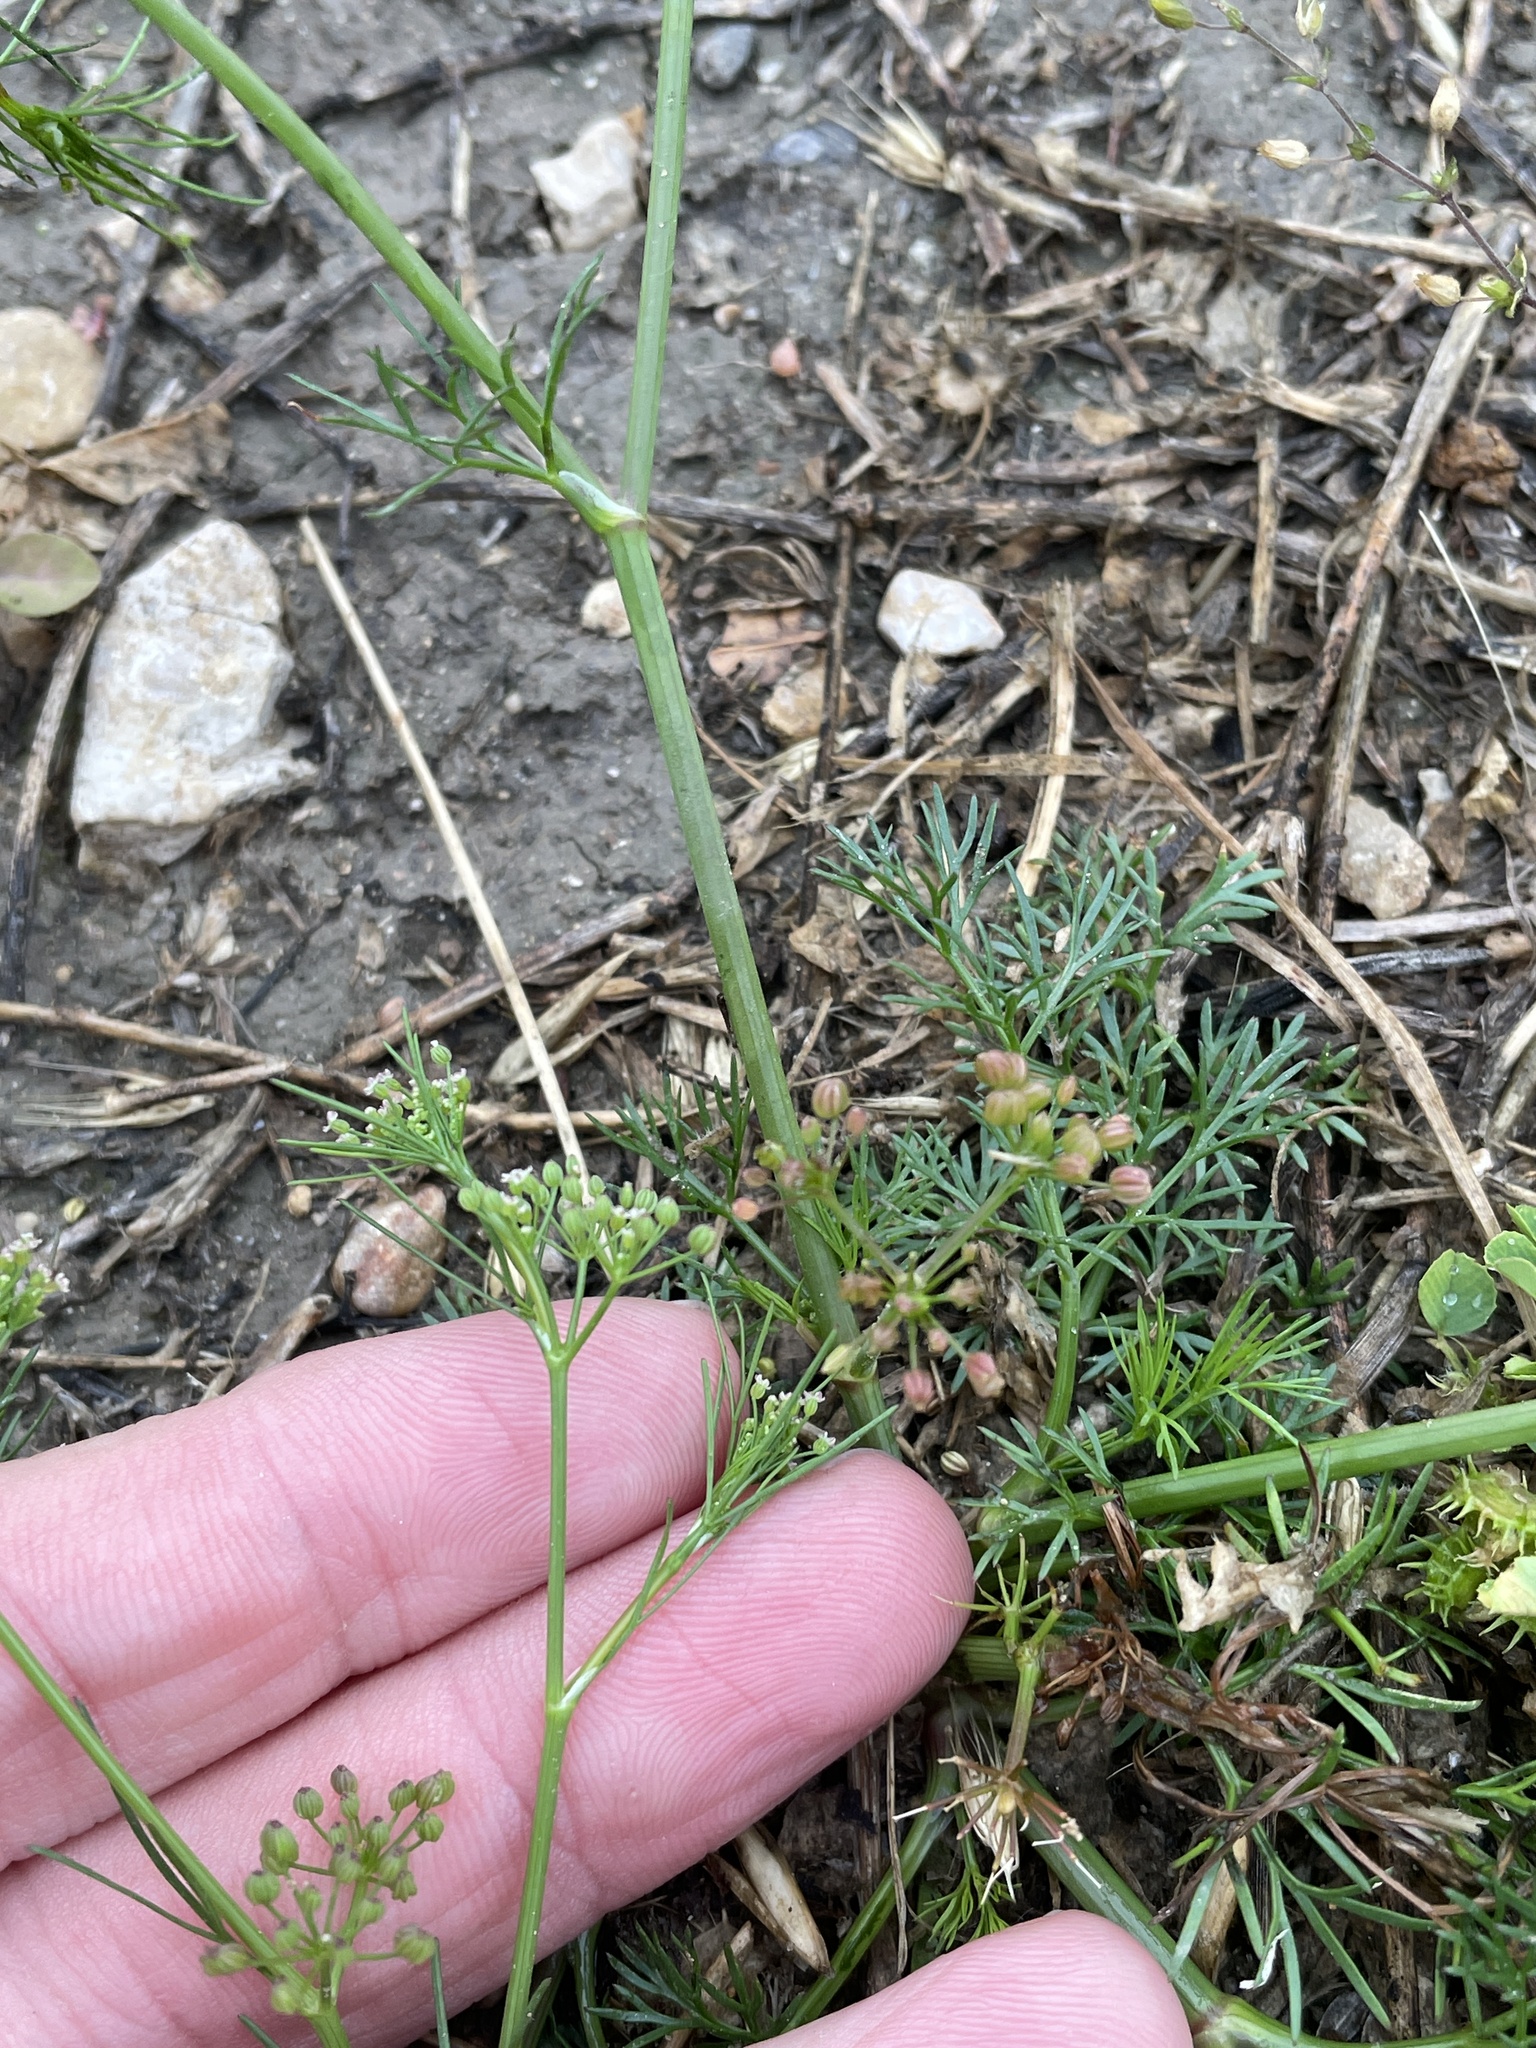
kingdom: Plantae
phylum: Tracheophyta
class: Magnoliopsida
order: Apiales
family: Apiaceae
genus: Cyclospermum
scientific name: Cyclospermum leptophyllum
